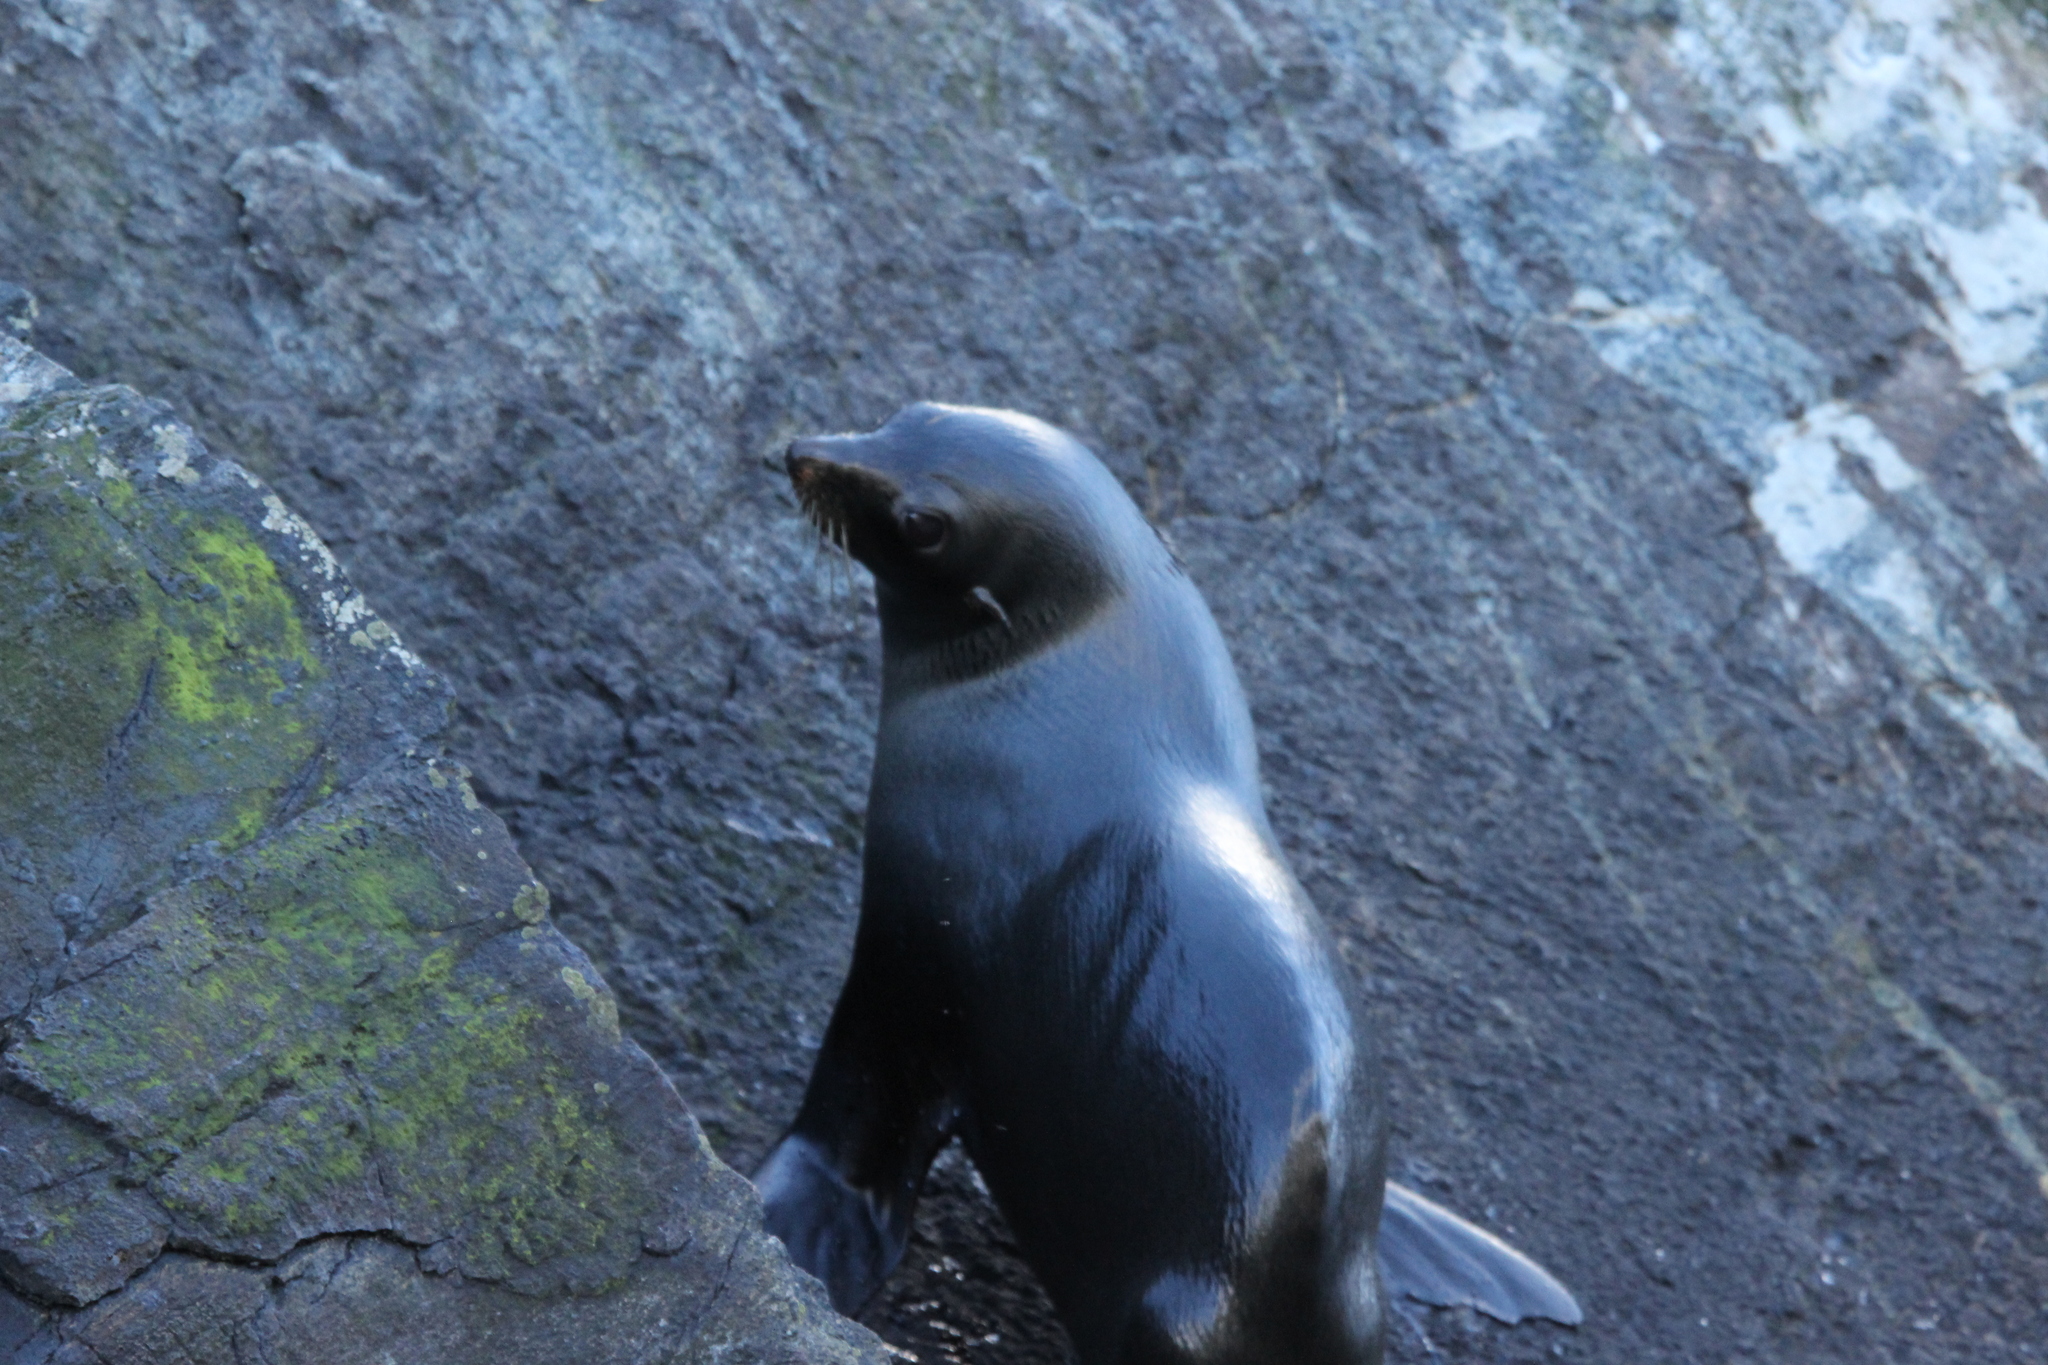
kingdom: Animalia
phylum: Chordata
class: Mammalia
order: Carnivora
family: Otariidae
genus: Arctocephalus
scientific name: Arctocephalus forsteri
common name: New zealand fur seal
